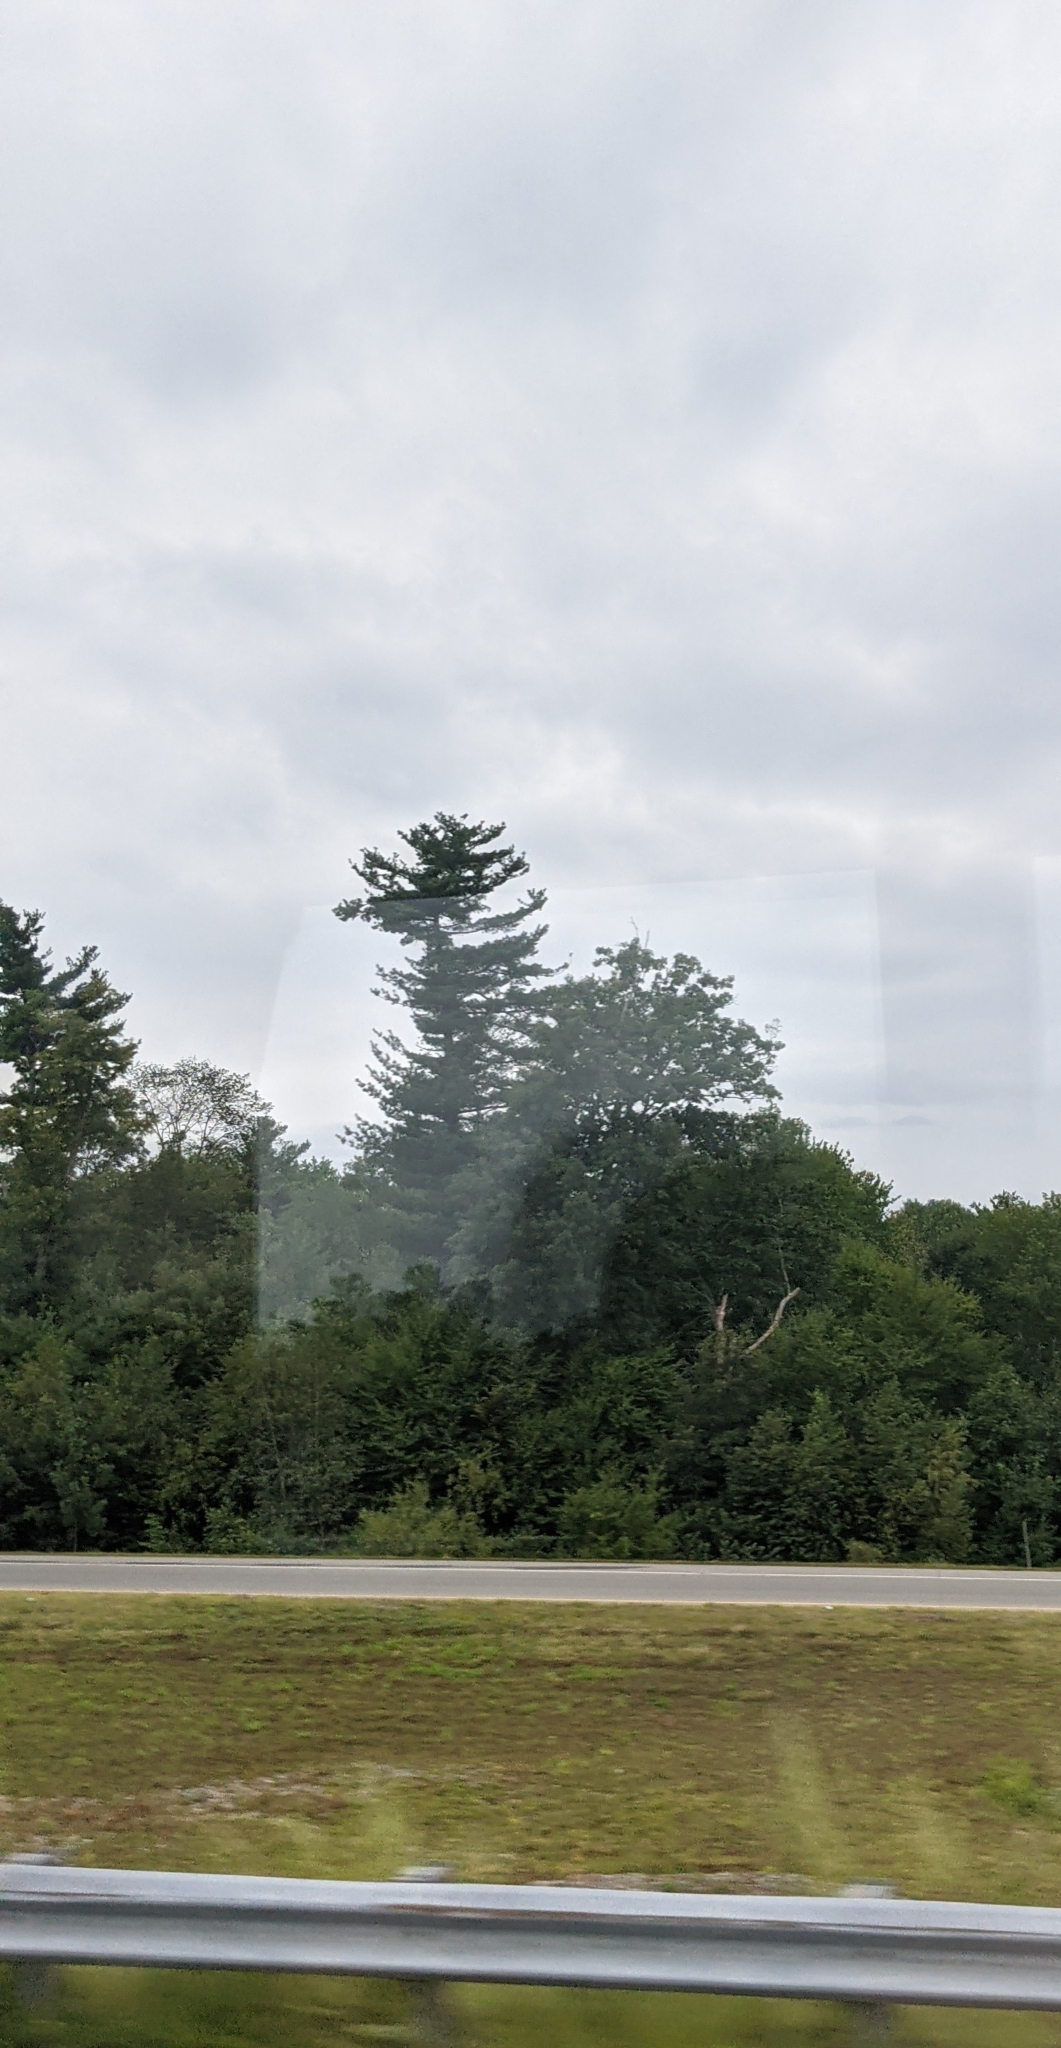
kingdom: Plantae
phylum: Tracheophyta
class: Pinopsida
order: Pinales
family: Pinaceae
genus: Pinus
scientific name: Pinus strobus
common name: Weymouth pine
